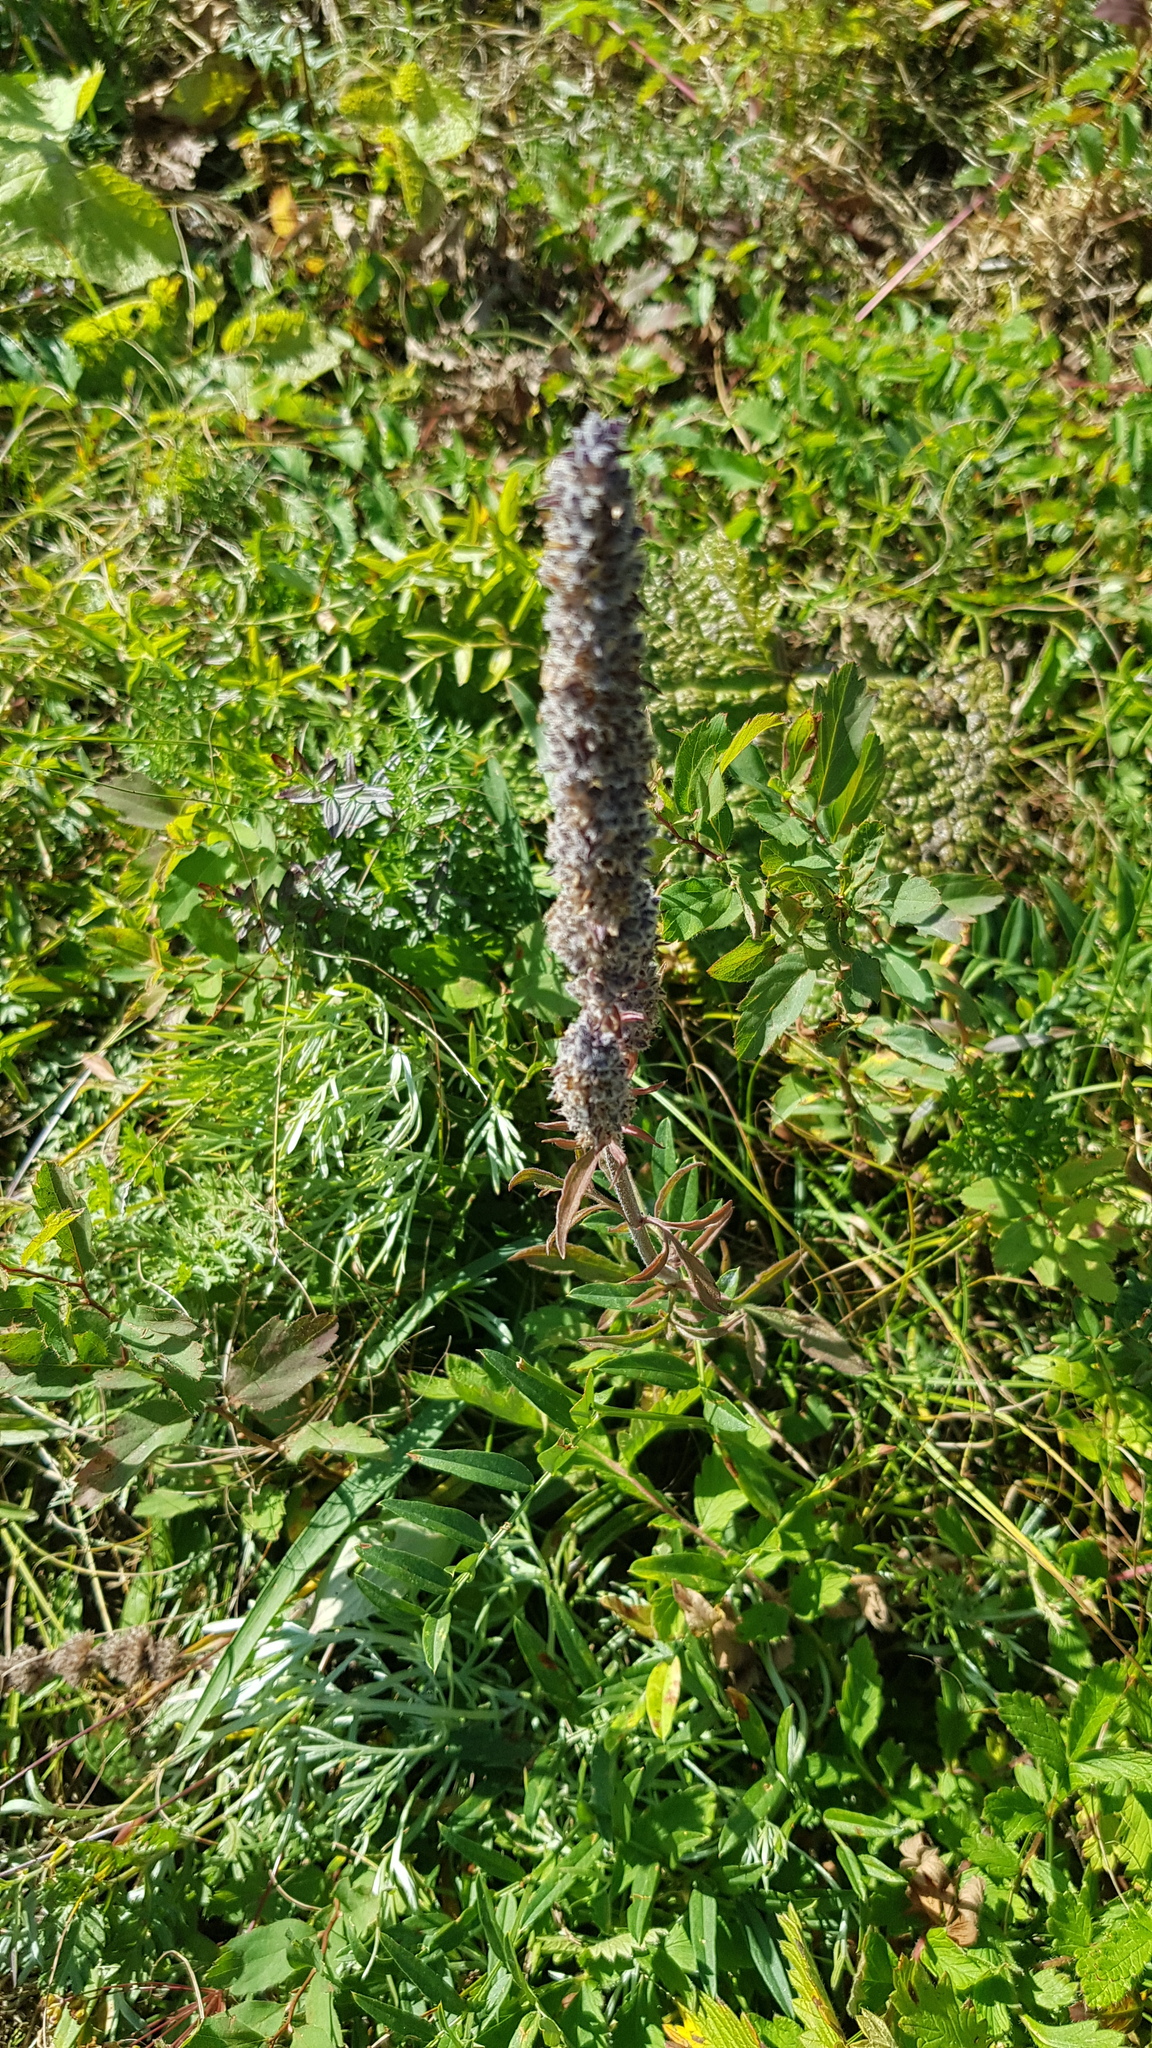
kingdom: Plantae
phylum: Tracheophyta
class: Magnoliopsida
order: Lamiales
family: Lamiaceae
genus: Nepeta
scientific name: Nepeta multifida
